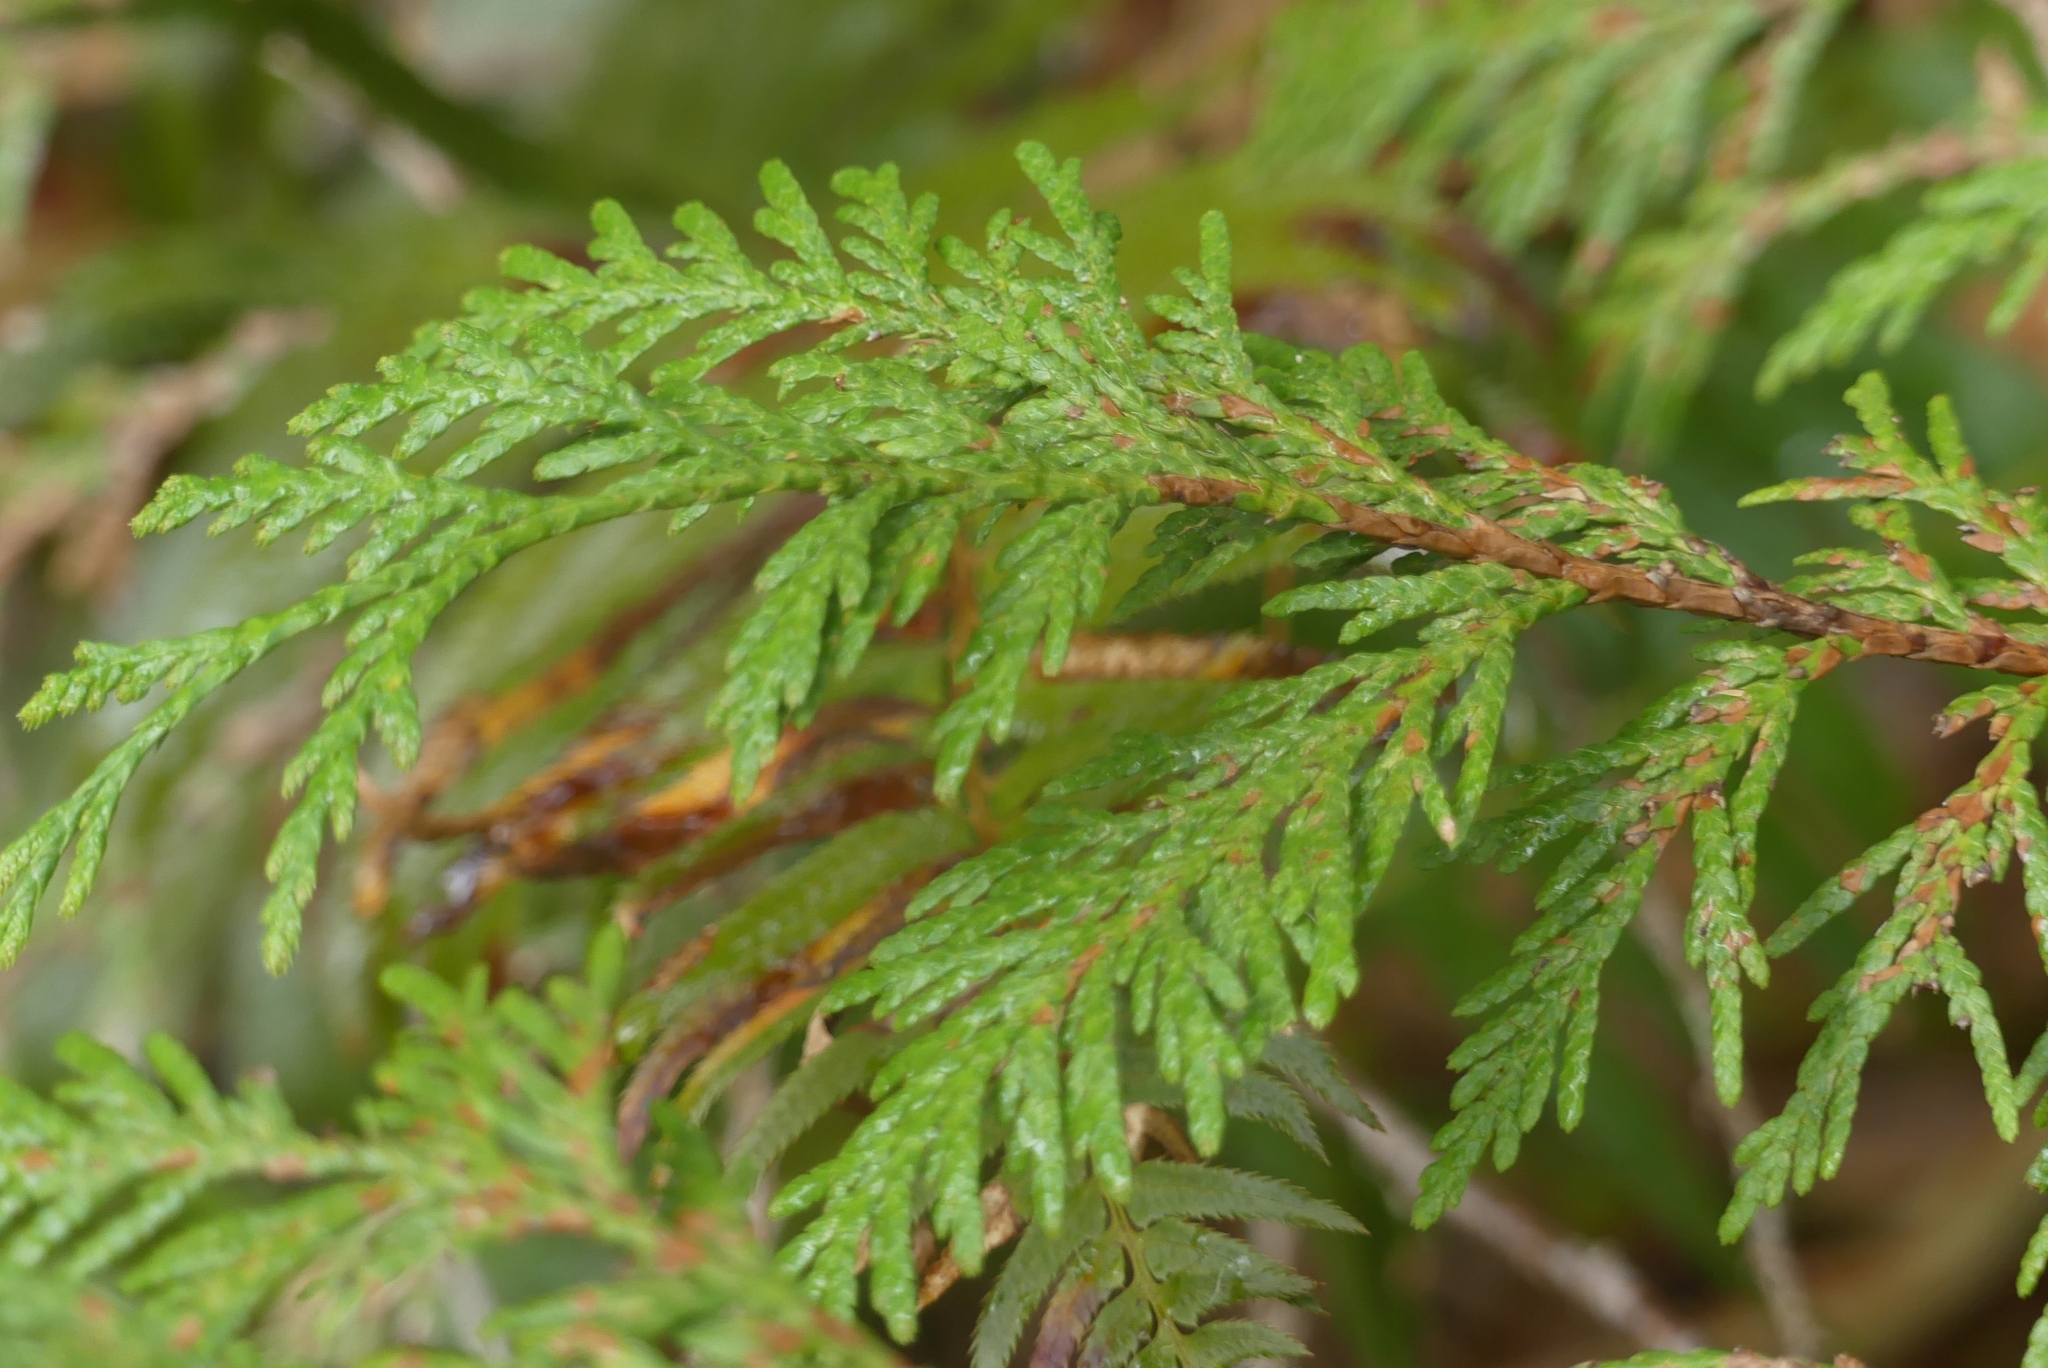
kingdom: Plantae
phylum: Tracheophyta
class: Pinopsida
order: Pinales
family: Cupressaceae
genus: Thuja
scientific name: Thuja plicata
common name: Western red-cedar
